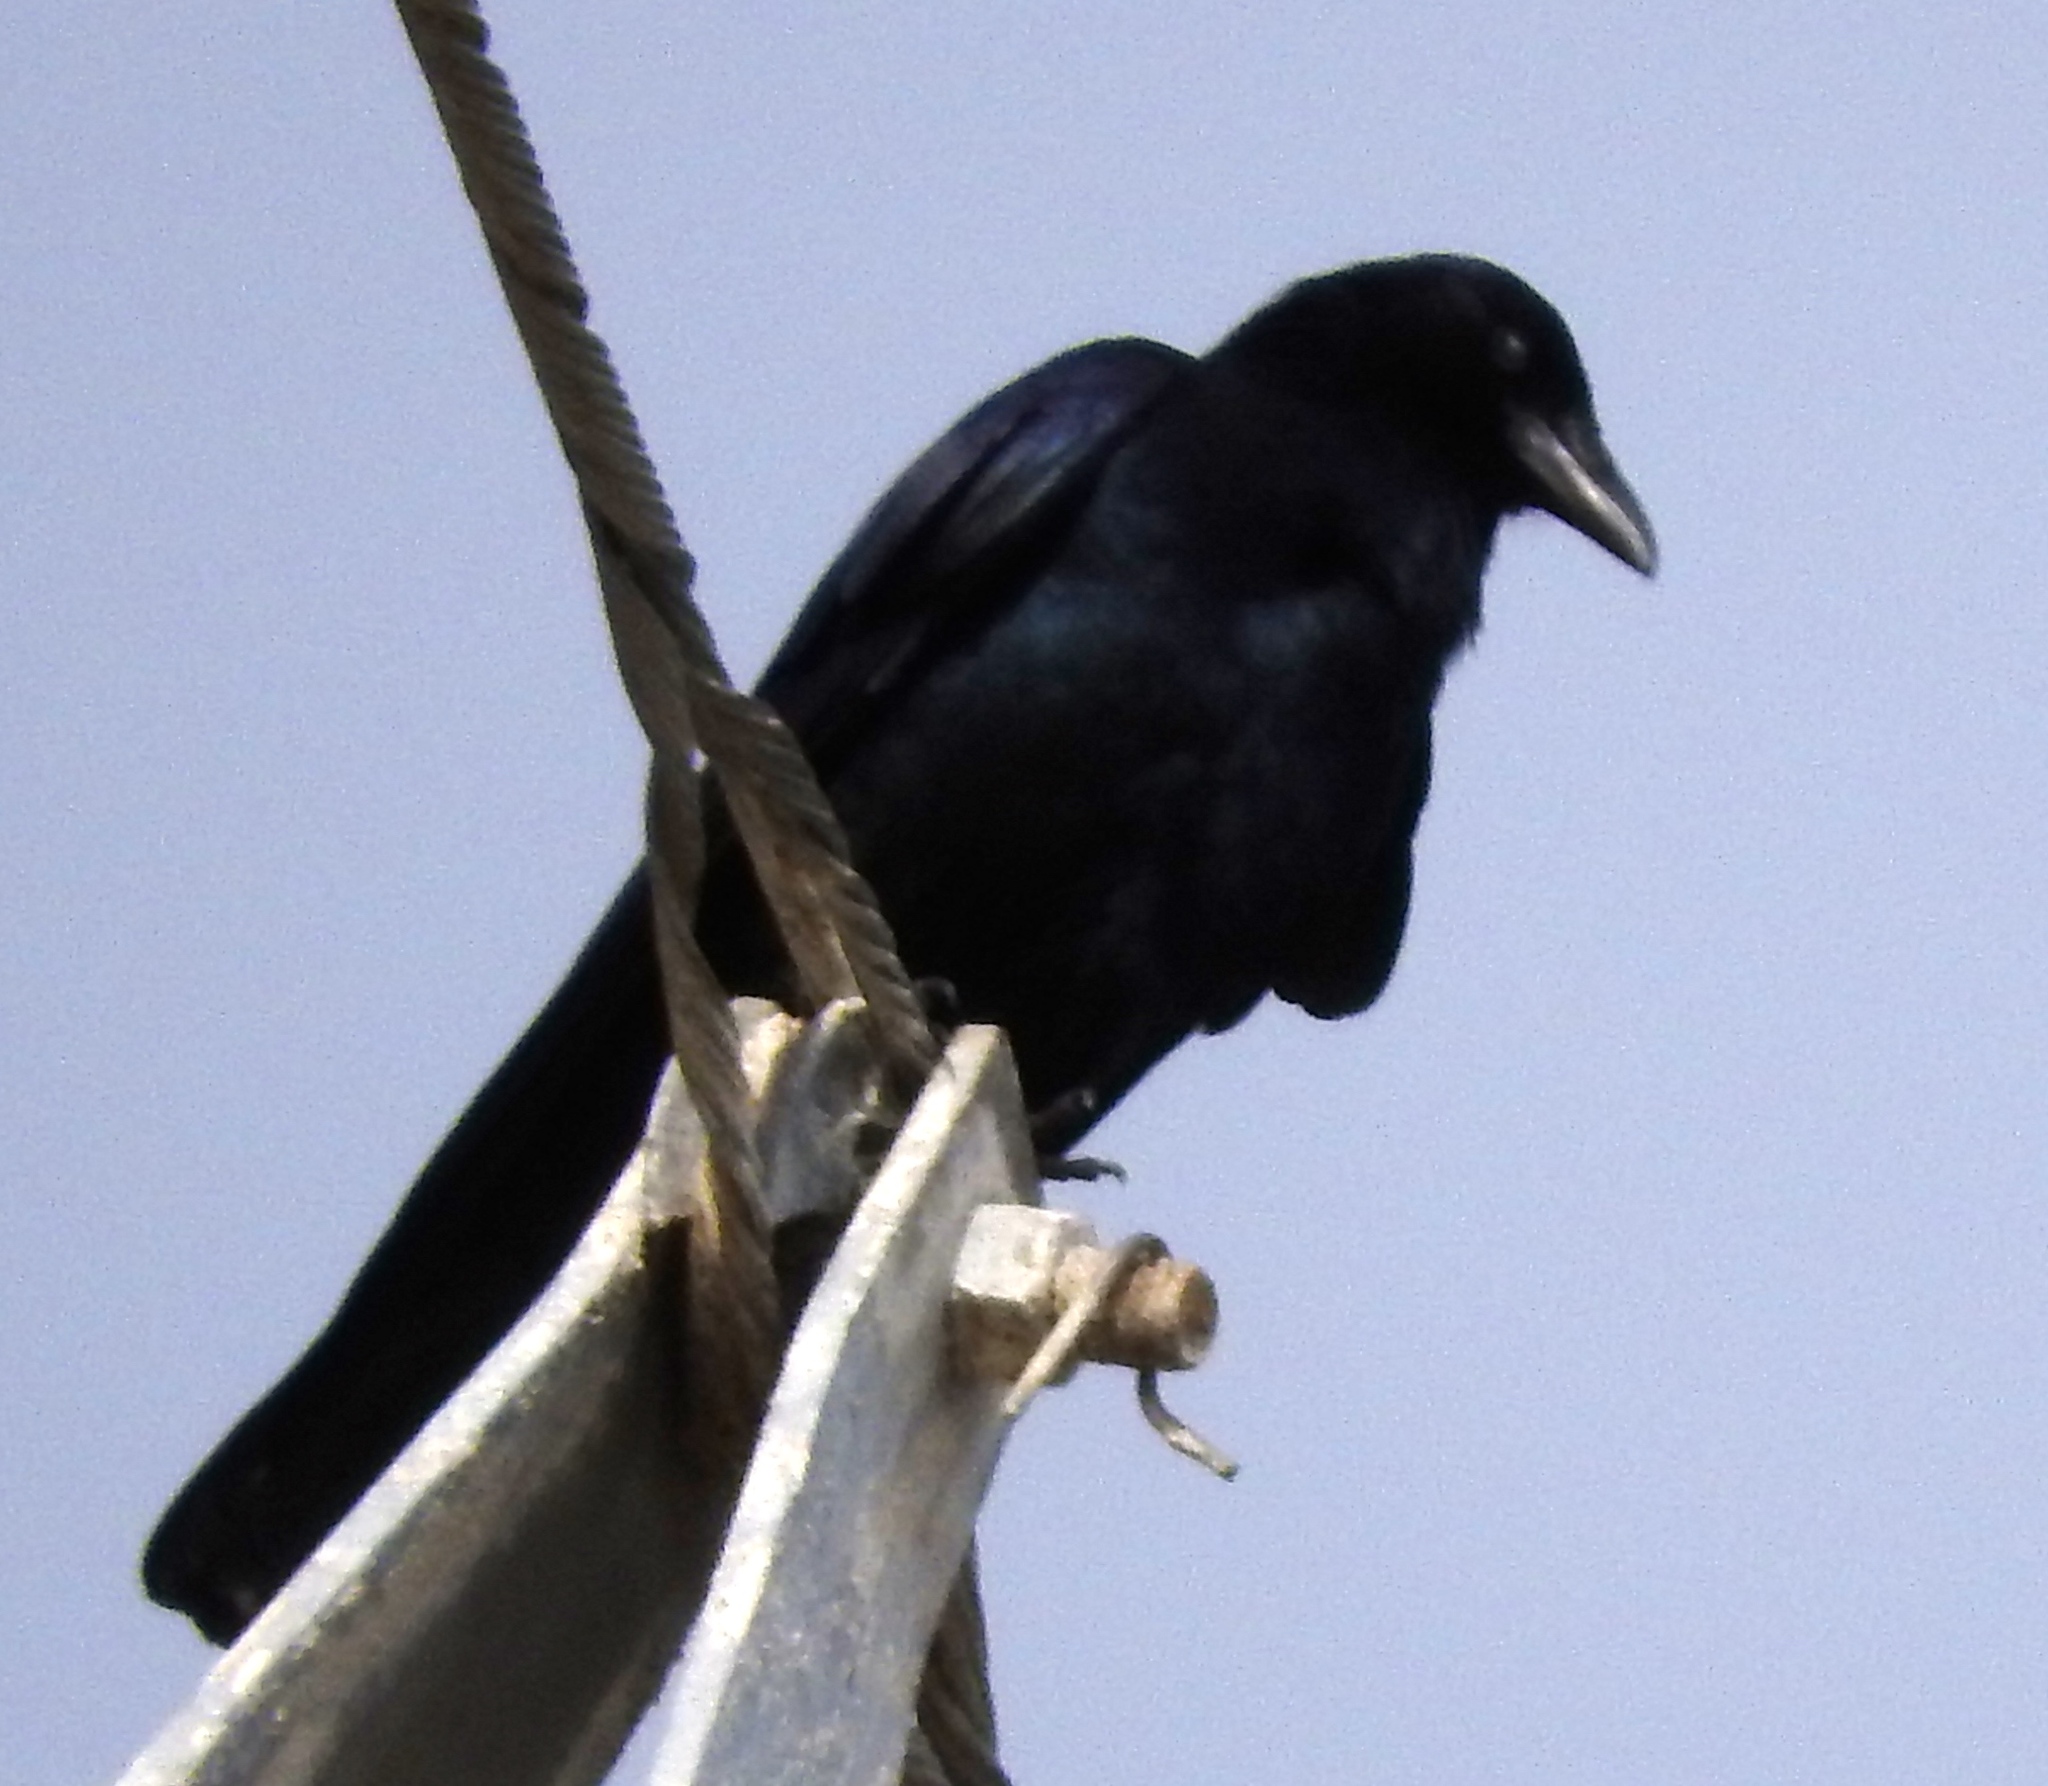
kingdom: Animalia
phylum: Chordata
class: Aves
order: Passeriformes
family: Corvidae
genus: Corvus
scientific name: Corvus sinaloae
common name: Sinaloa crow
